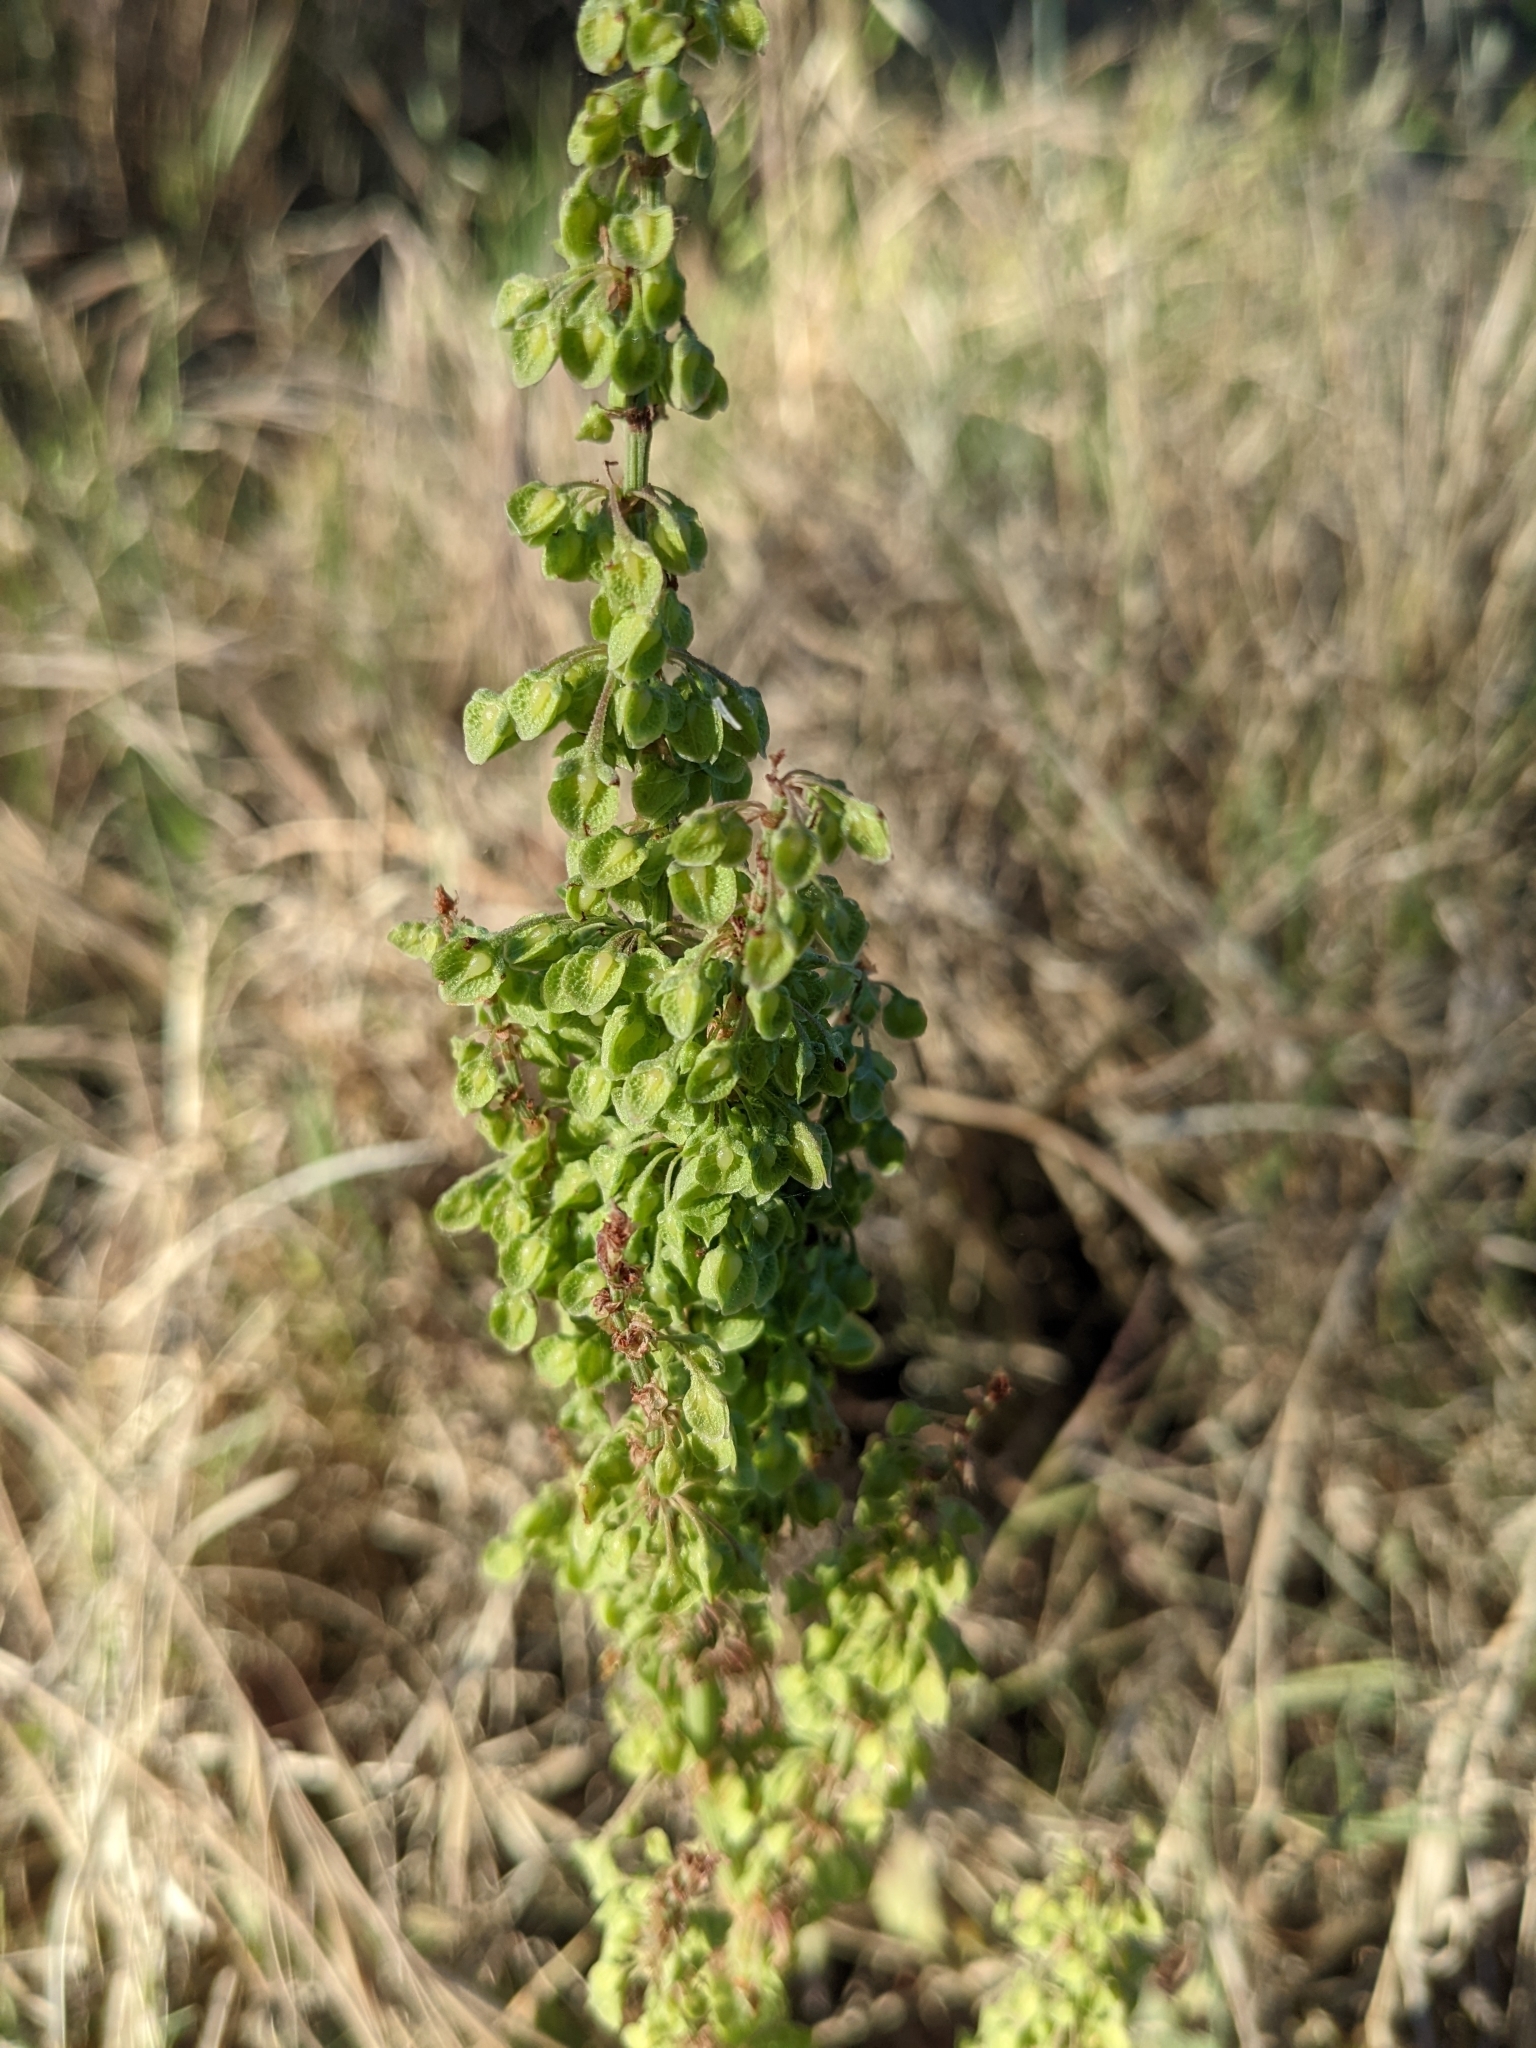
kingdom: Plantae
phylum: Tracheophyta
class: Magnoliopsida
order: Caryophyllales
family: Polygonaceae
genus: Rumex
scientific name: Rumex salicifolius
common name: Willow-leaved dock
